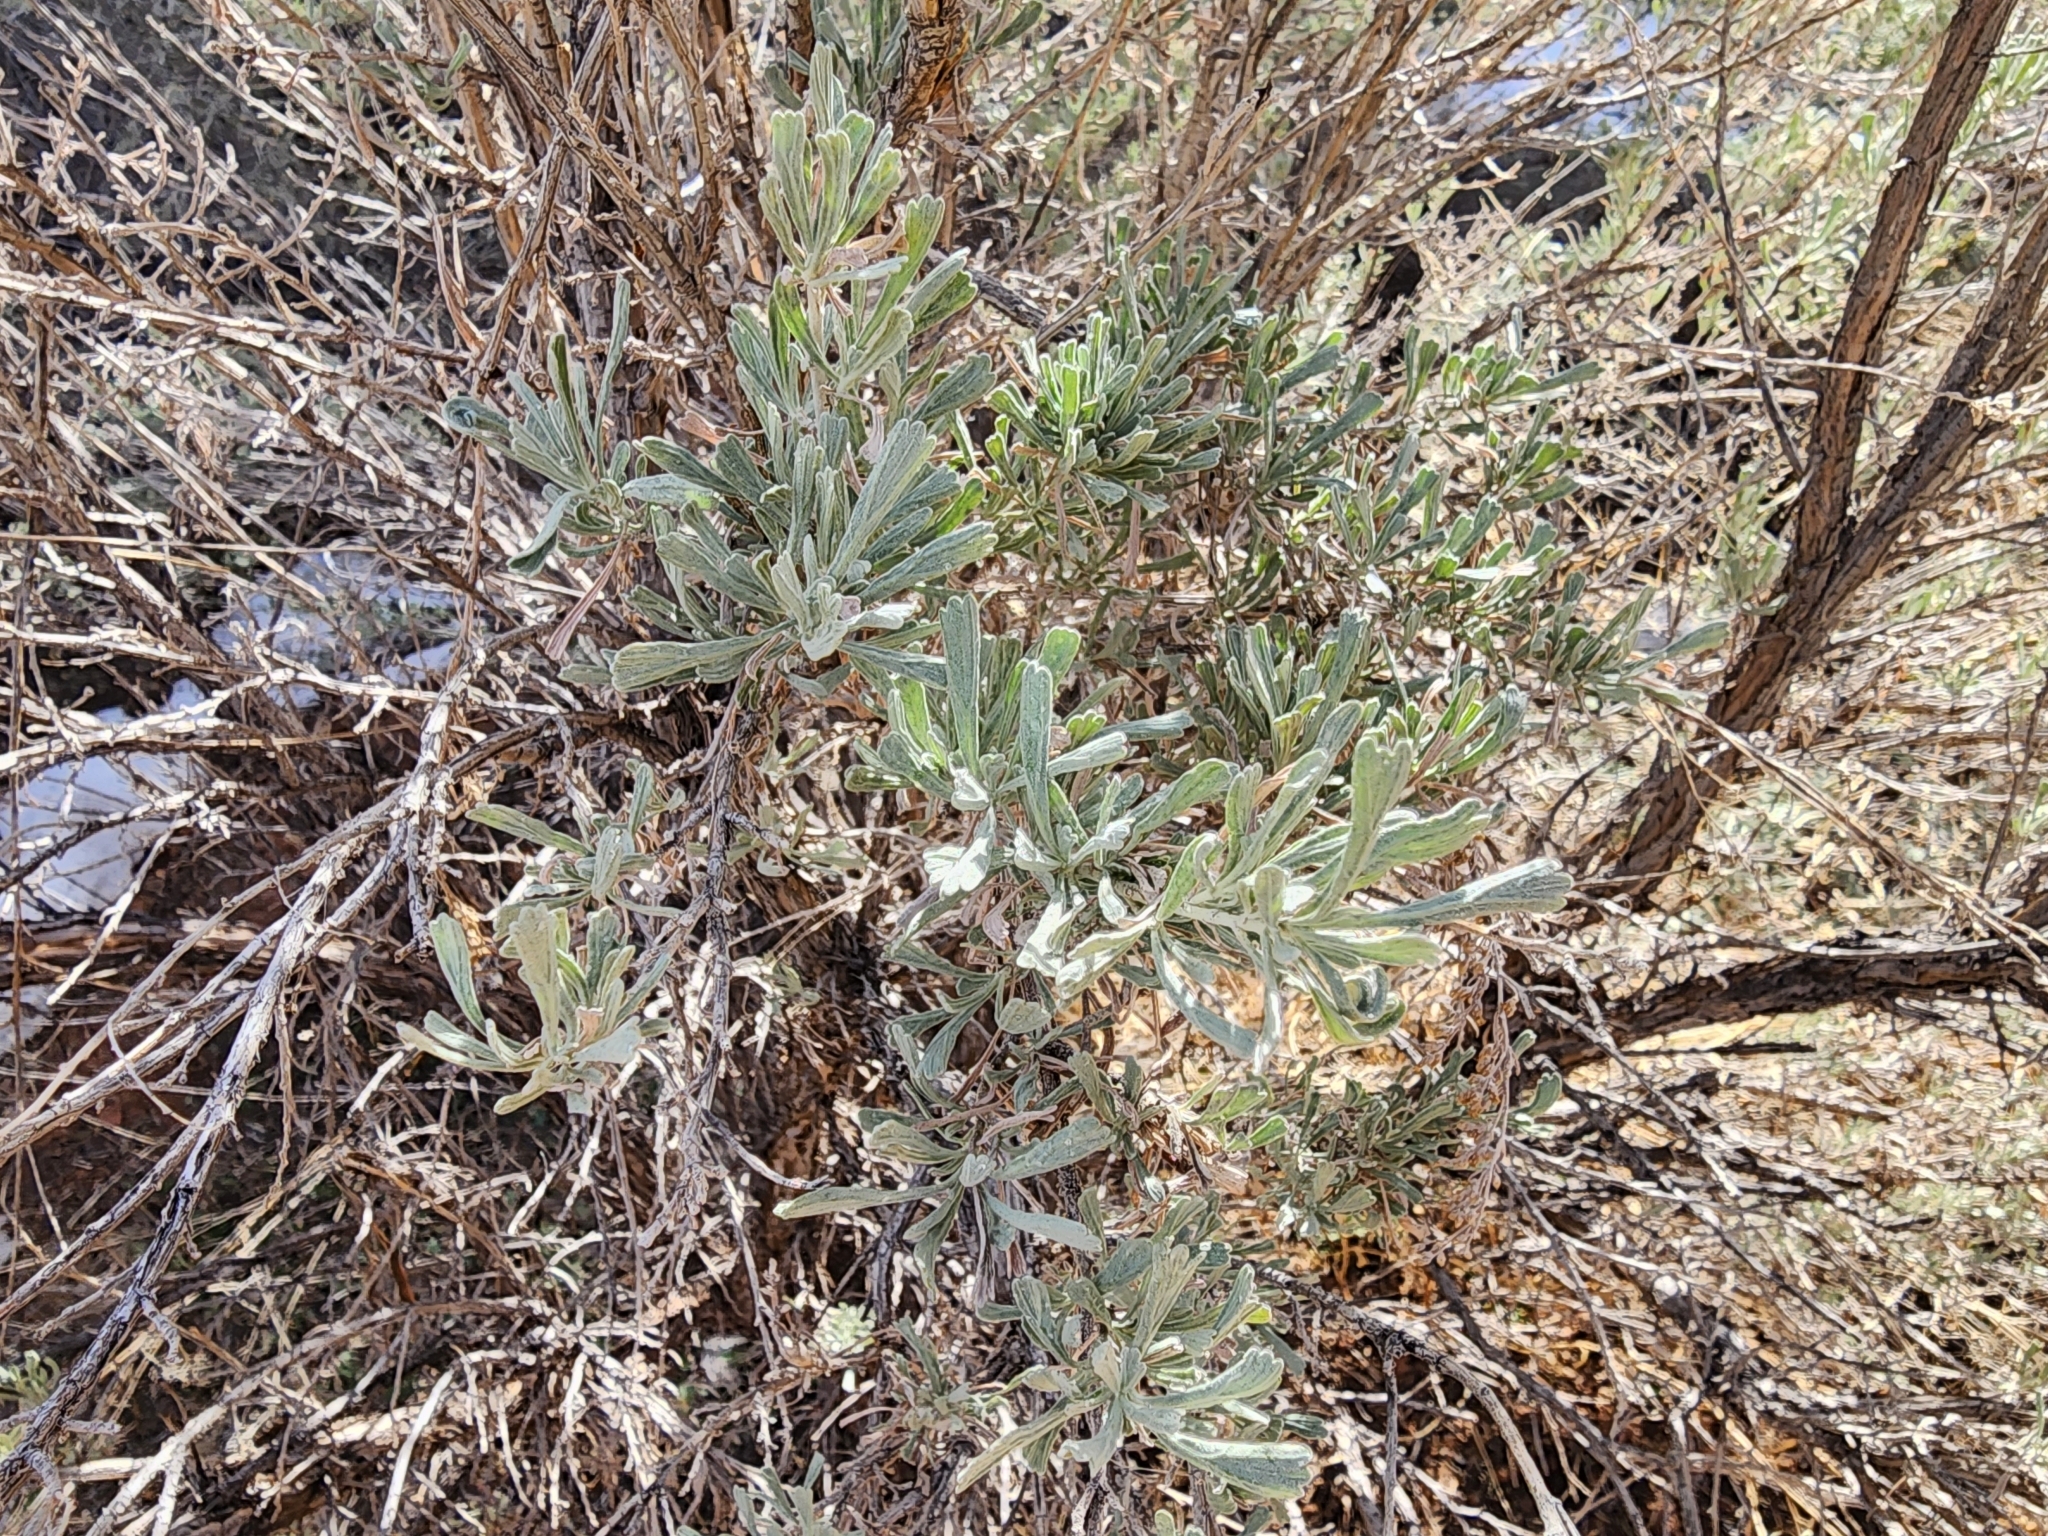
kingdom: Plantae
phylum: Tracheophyta
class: Magnoliopsida
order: Asterales
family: Asteraceae
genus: Artemisia
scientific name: Artemisia tridentata
